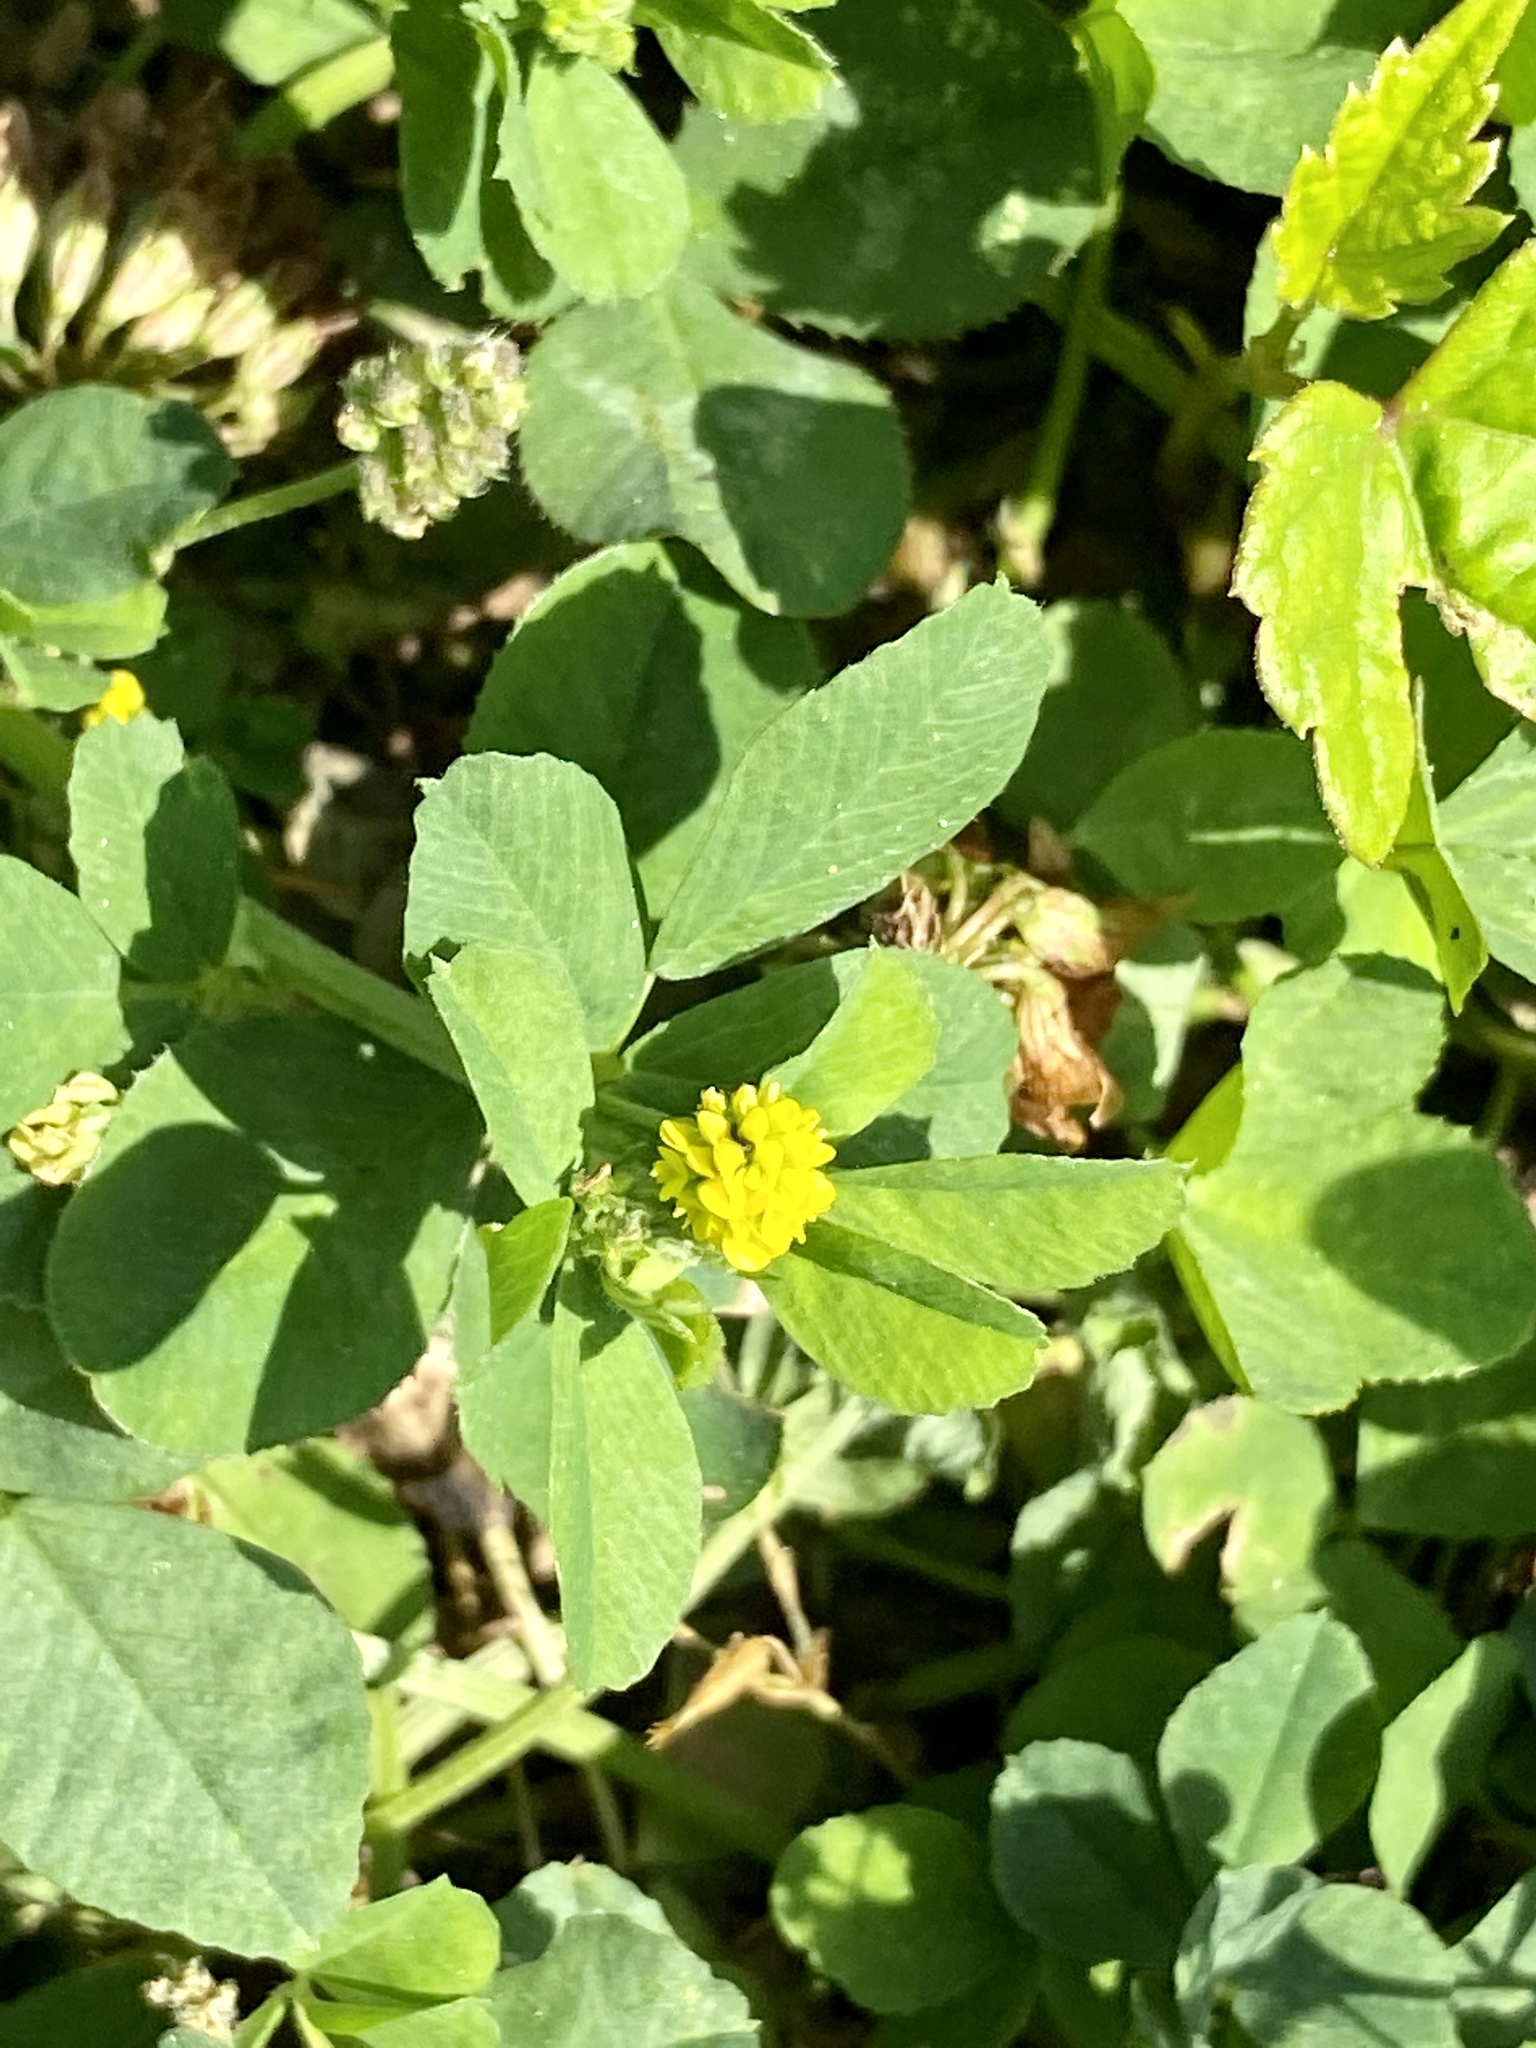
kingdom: Plantae
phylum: Tracheophyta
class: Magnoliopsida
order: Fabales
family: Fabaceae
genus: Medicago
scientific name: Medicago lupulina
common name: Black medick
